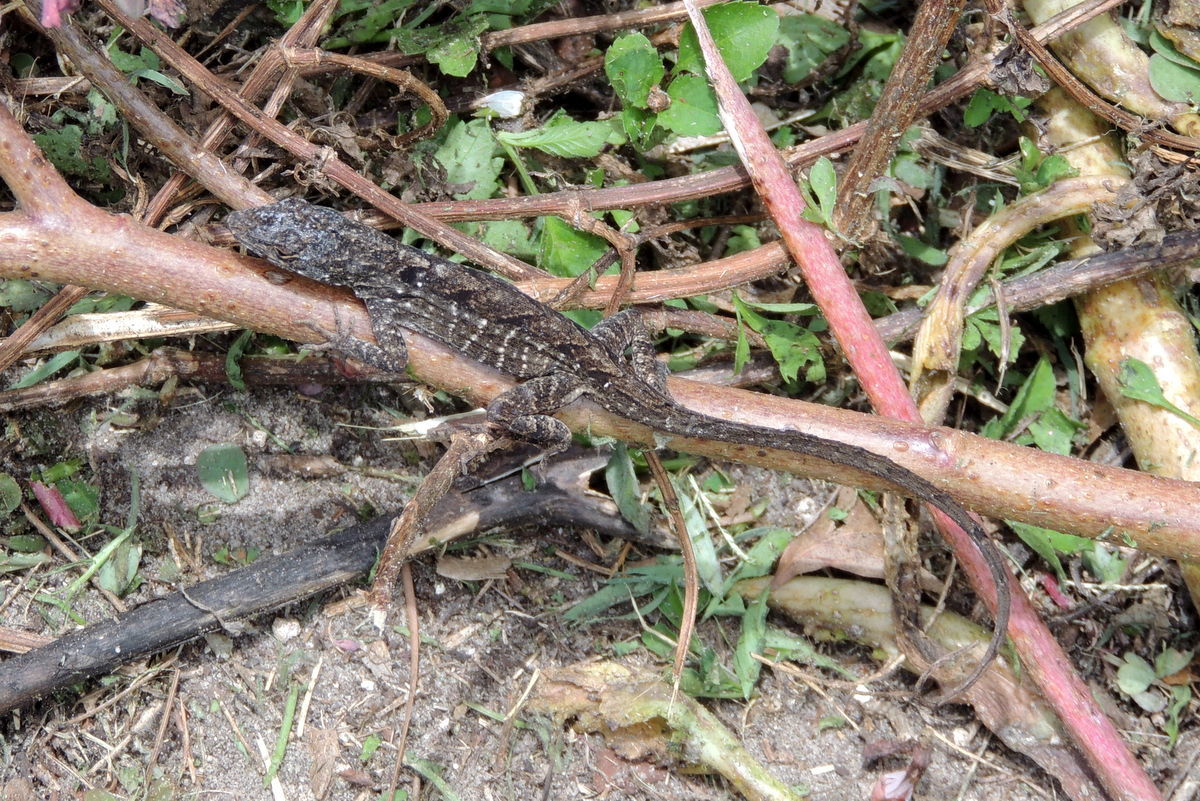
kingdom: Animalia
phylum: Chordata
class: Squamata
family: Dactyloidae
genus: Anolis
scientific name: Anolis sagrei
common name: Brown anole
